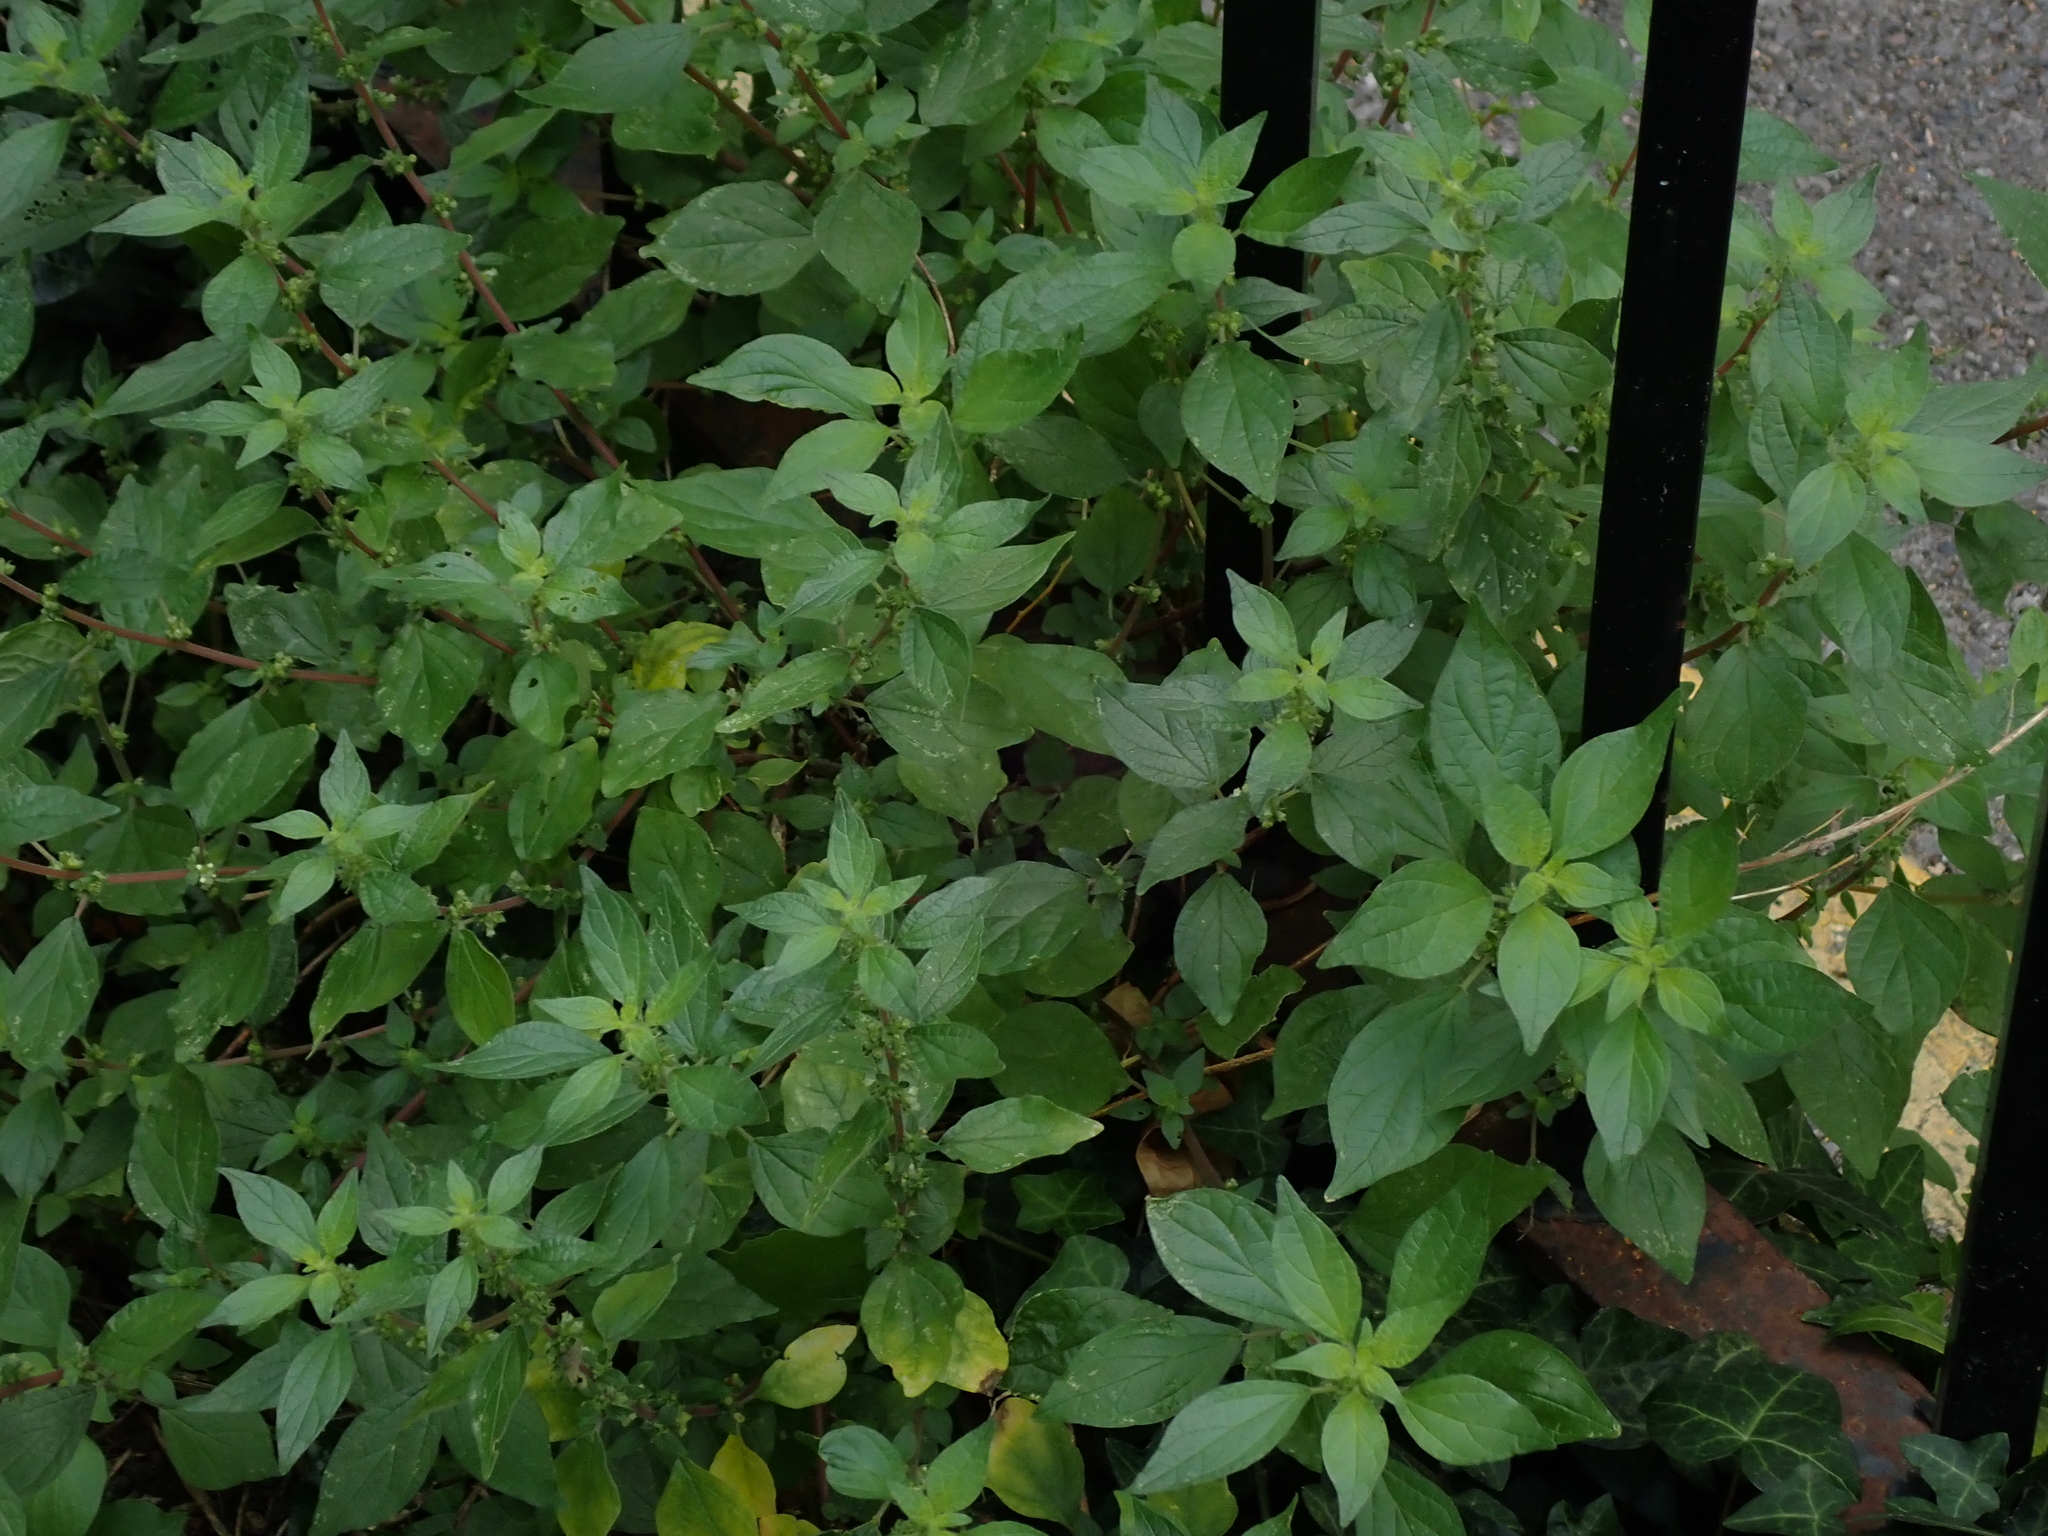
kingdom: Plantae
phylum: Tracheophyta
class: Magnoliopsida
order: Rosales
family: Urticaceae
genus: Parietaria
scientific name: Parietaria judaica
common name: Pellitory-of-the-wall
